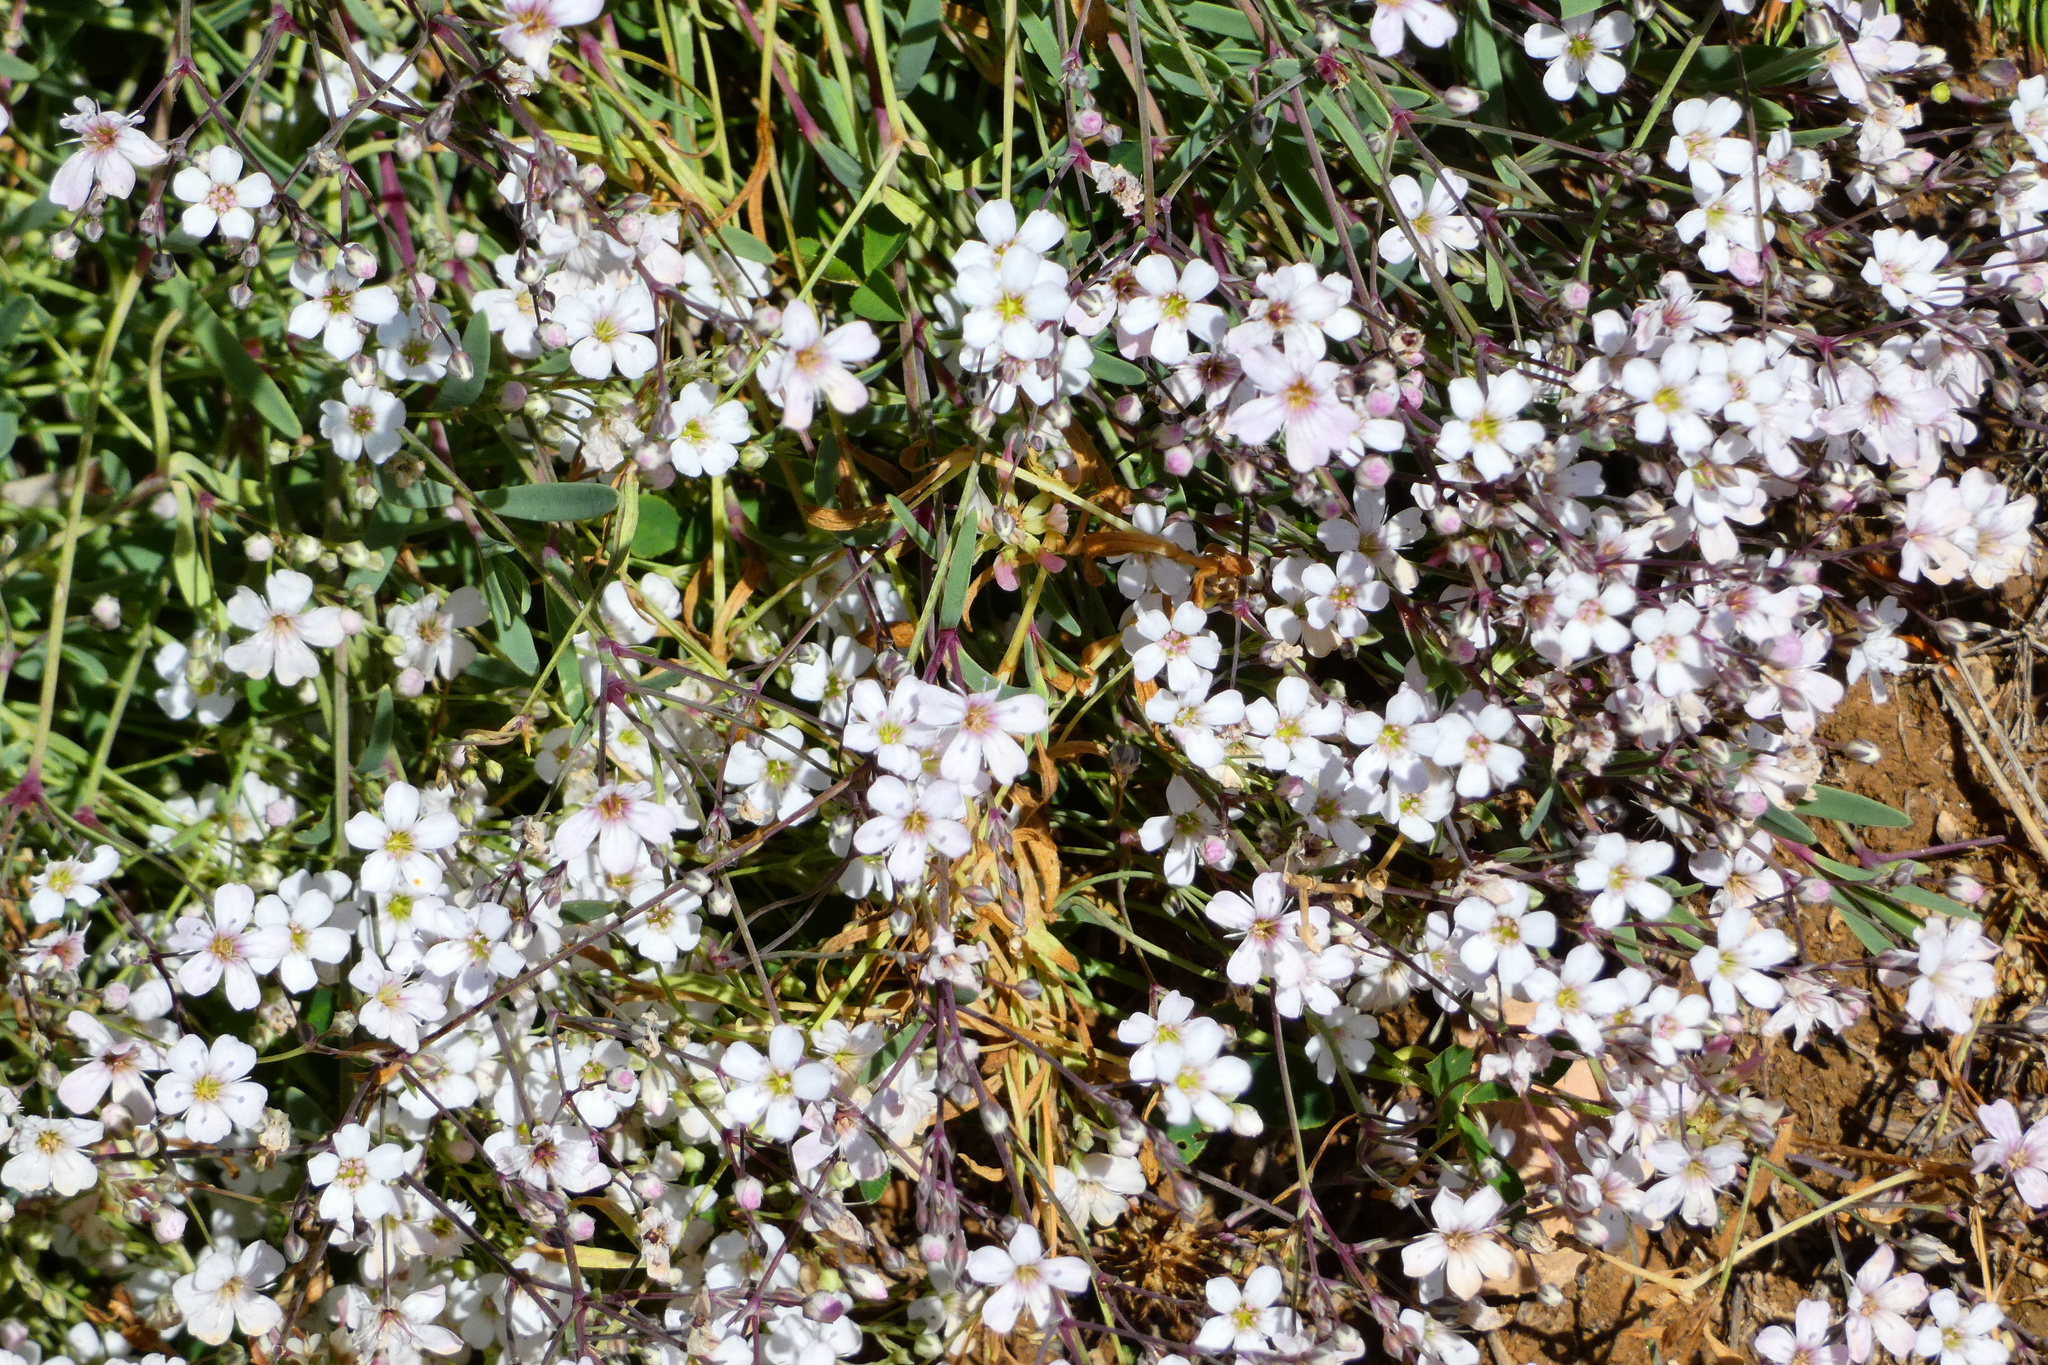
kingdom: Plantae
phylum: Tracheophyta
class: Magnoliopsida
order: Caryophyllales
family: Caryophyllaceae
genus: Gypsophila
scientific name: Gypsophila repens
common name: Creeping baby's-breath
